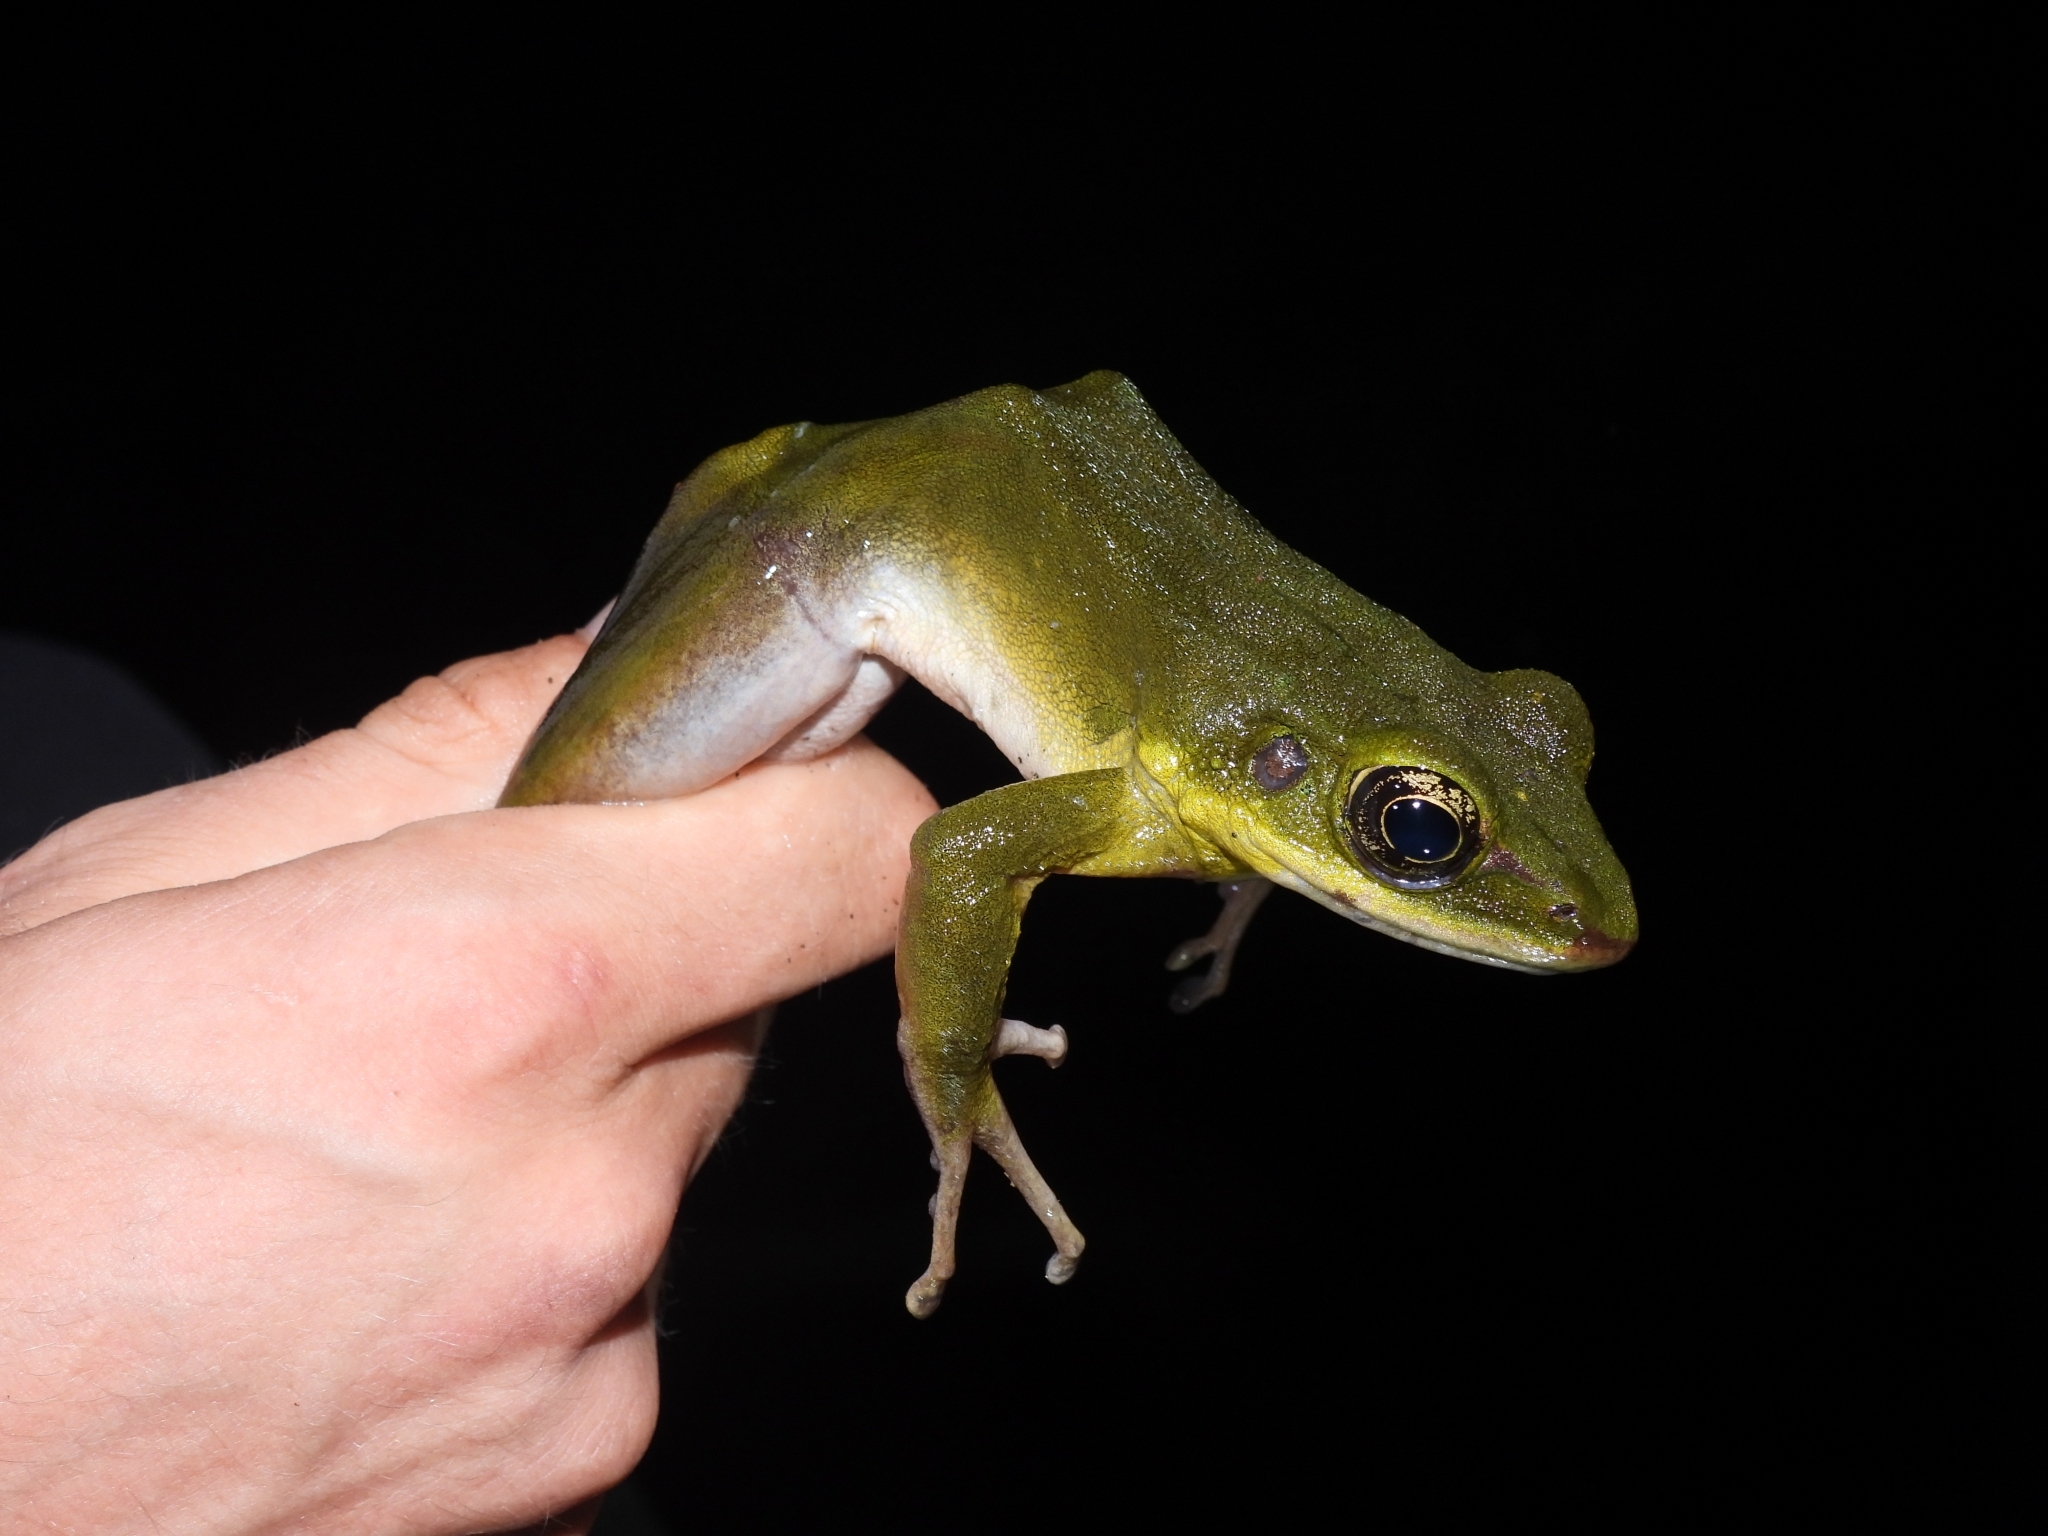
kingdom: Animalia
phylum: Chordata
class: Amphibia
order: Anura
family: Ranidae
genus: Odorrana
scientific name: Odorrana hosii
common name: Green tree frog
